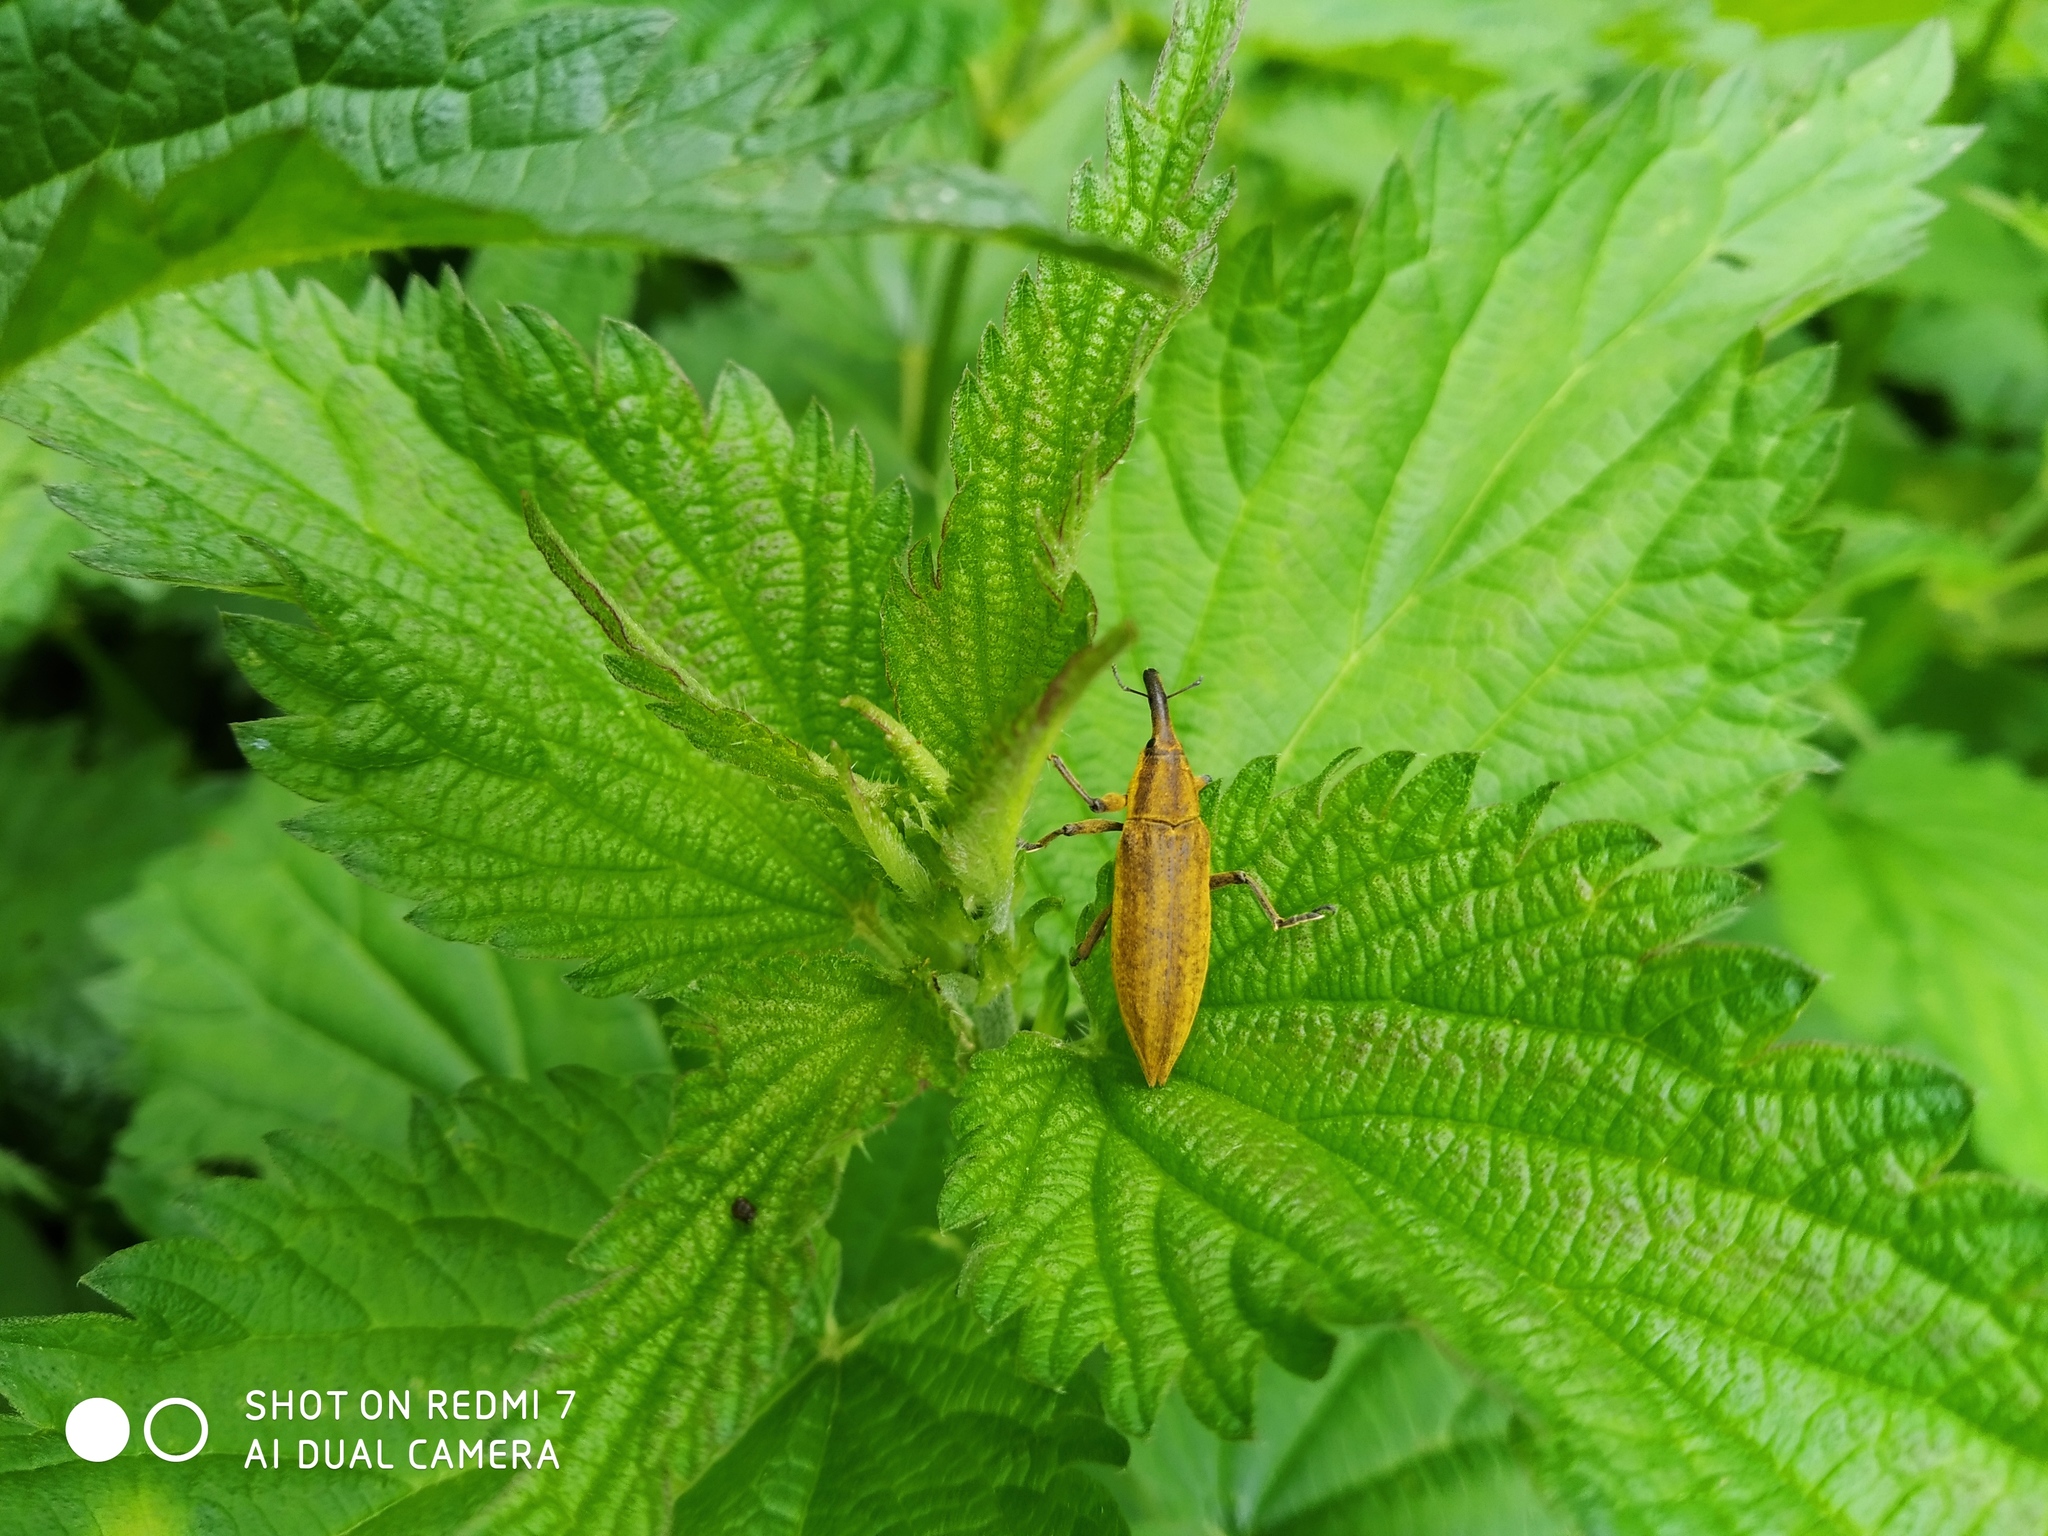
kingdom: Animalia
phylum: Arthropoda
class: Insecta
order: Coleoptera
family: Curculionidae
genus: Lixus
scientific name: Lixus iridis
